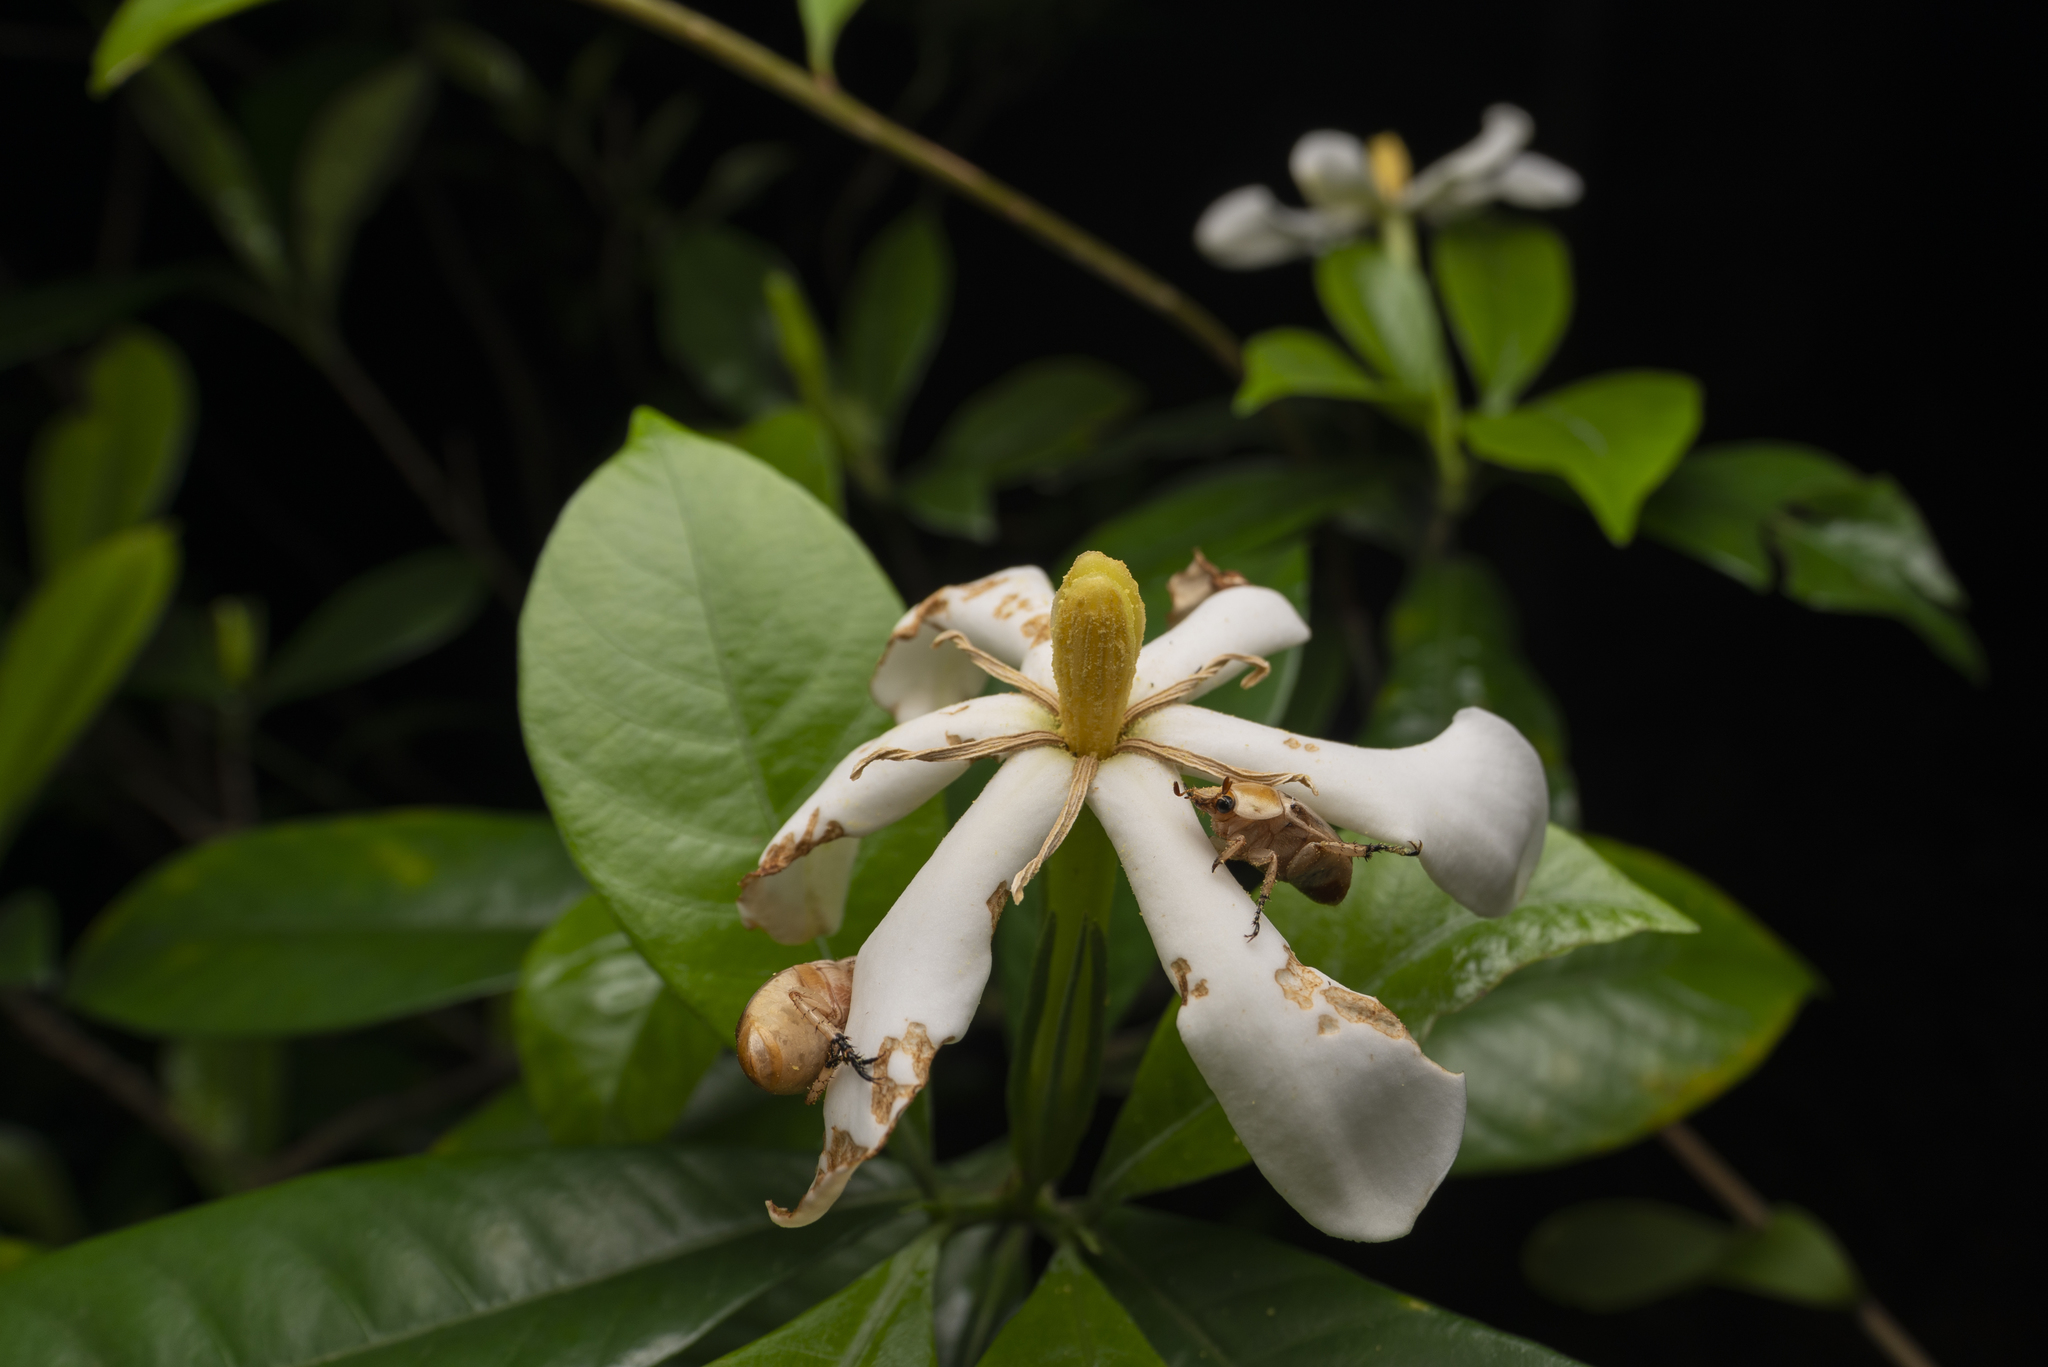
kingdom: Plantae
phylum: Tracheophyta
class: Magnoliopsida
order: Gentianales
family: Rubiaceae
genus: Gardenia
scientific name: Gardenia jasminoides
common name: Cape-jasmine
